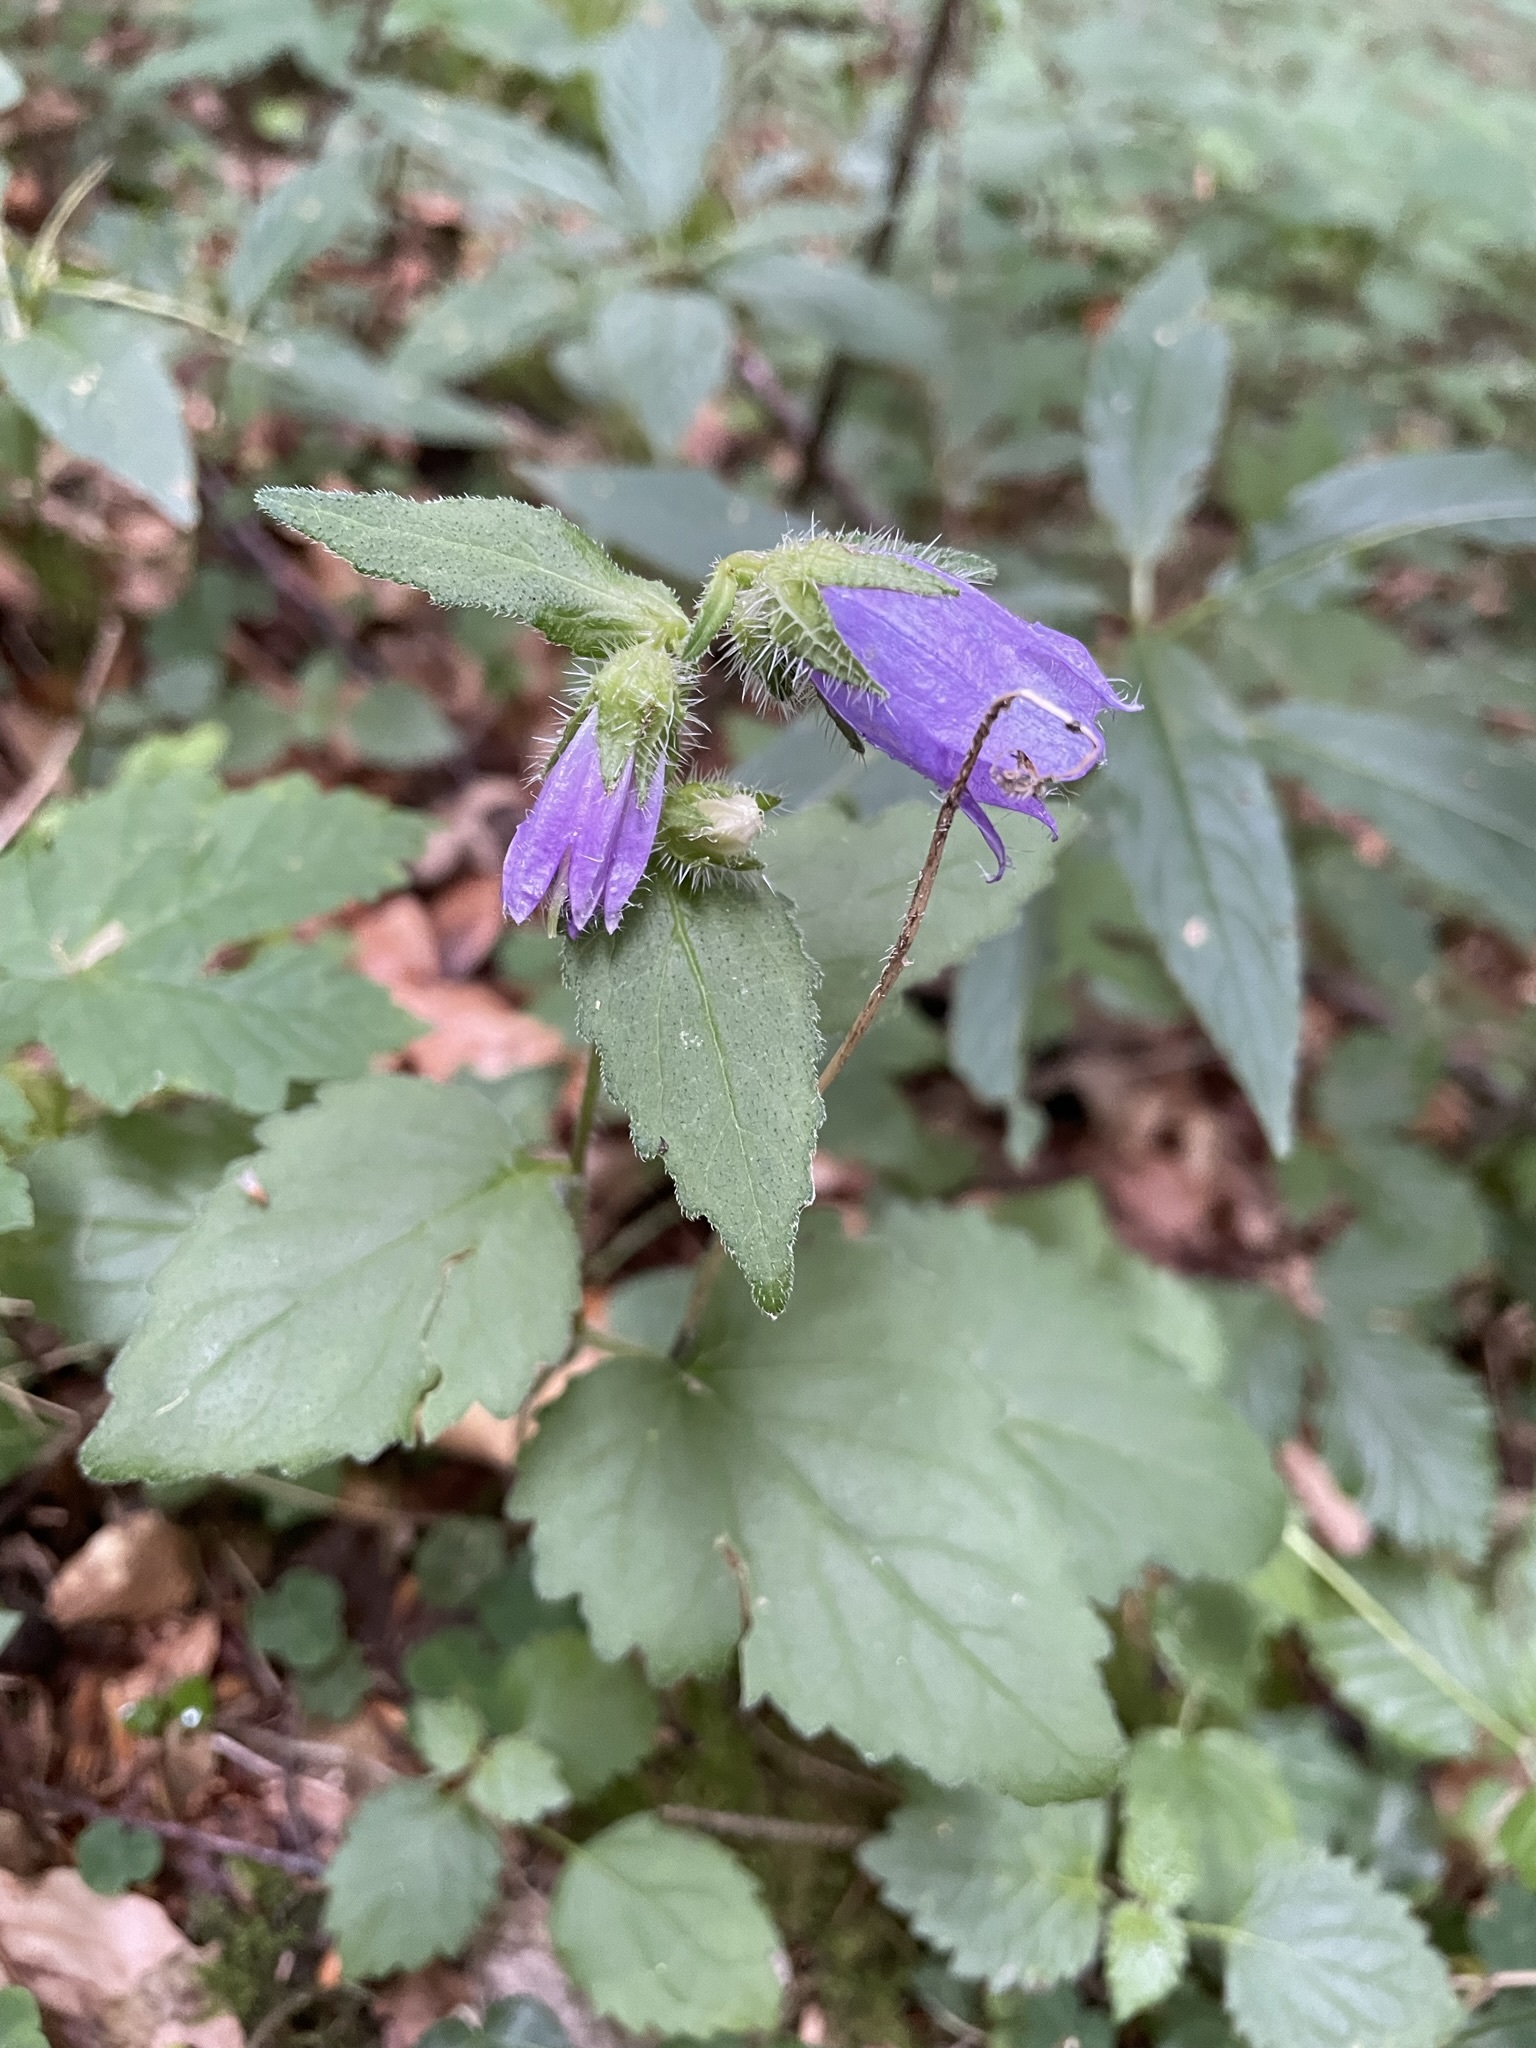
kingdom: Plantae
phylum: Tracheophyta
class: Magnoliopsida
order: Asterales
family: Campanulaceae
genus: Campanula
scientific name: Campanula trachelium
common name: Nettle-leaved bellflower
